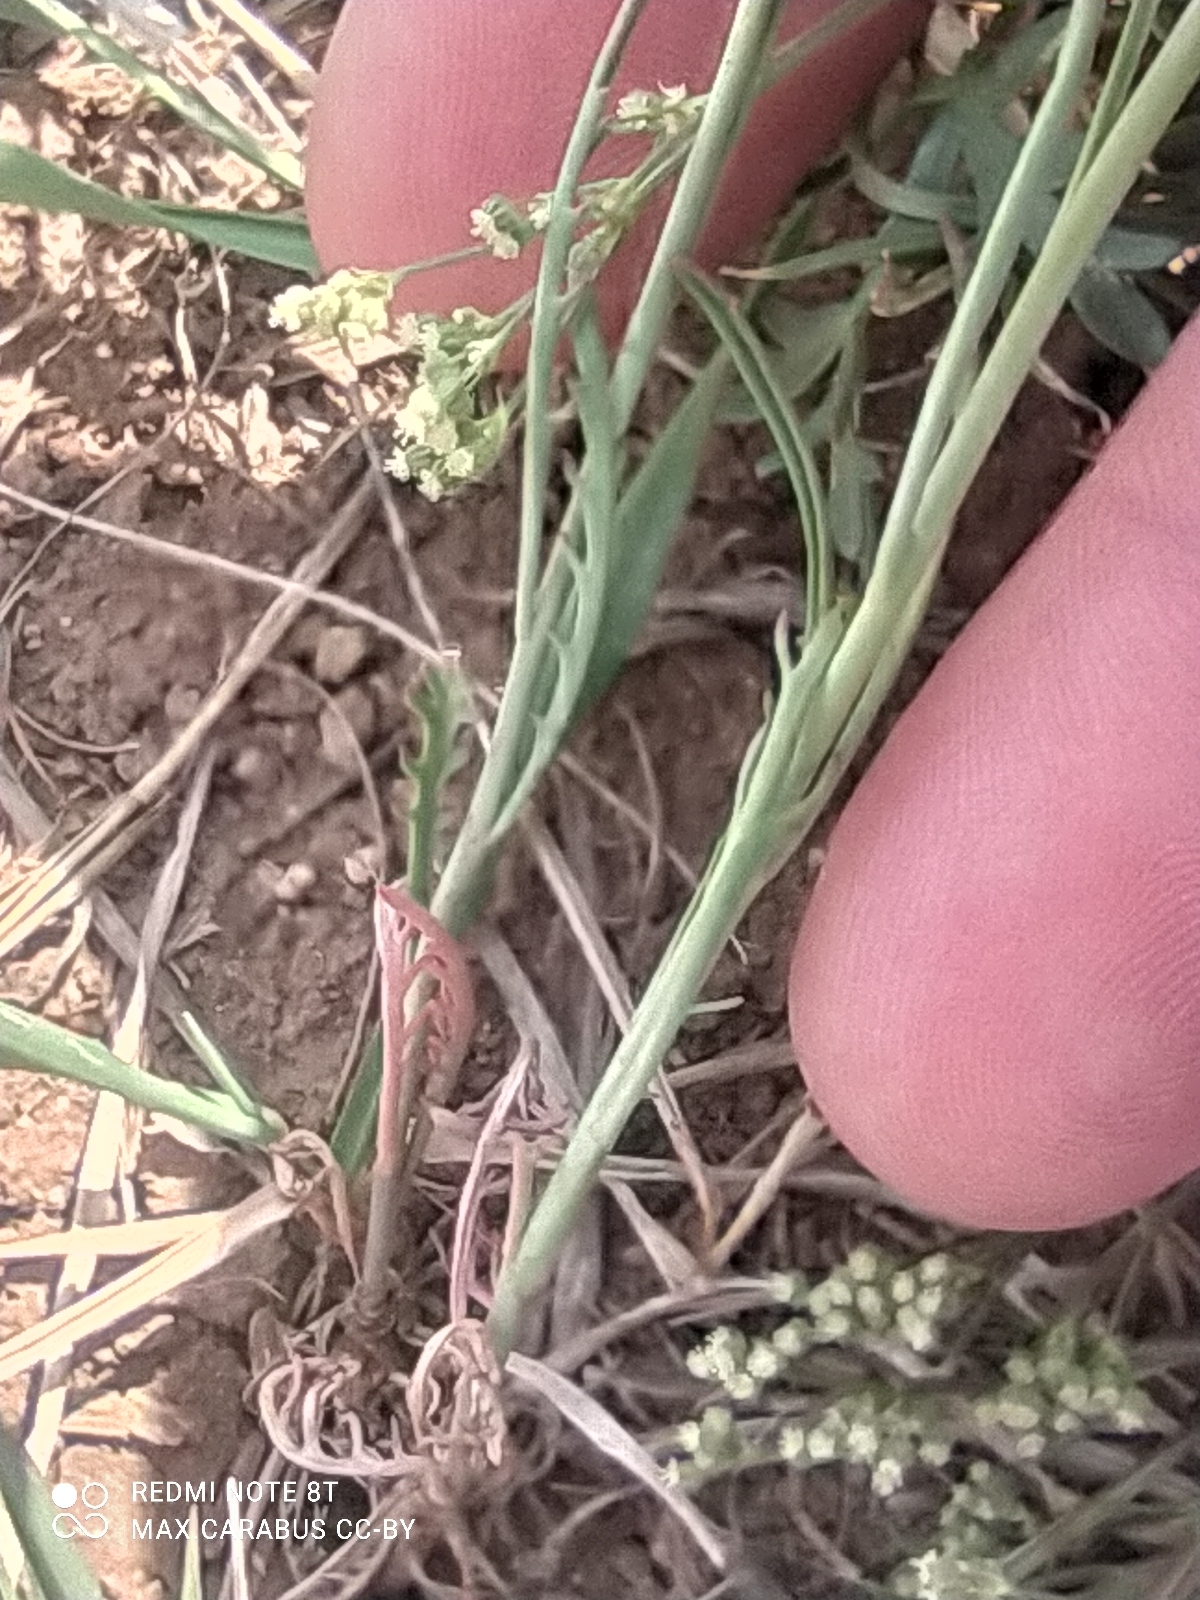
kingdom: Plantae
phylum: Tracheophyta
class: Magnoliopsida
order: Brassicales
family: Brassicaceae
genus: Sisymbrium
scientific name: Sisymbrium polymorphum
